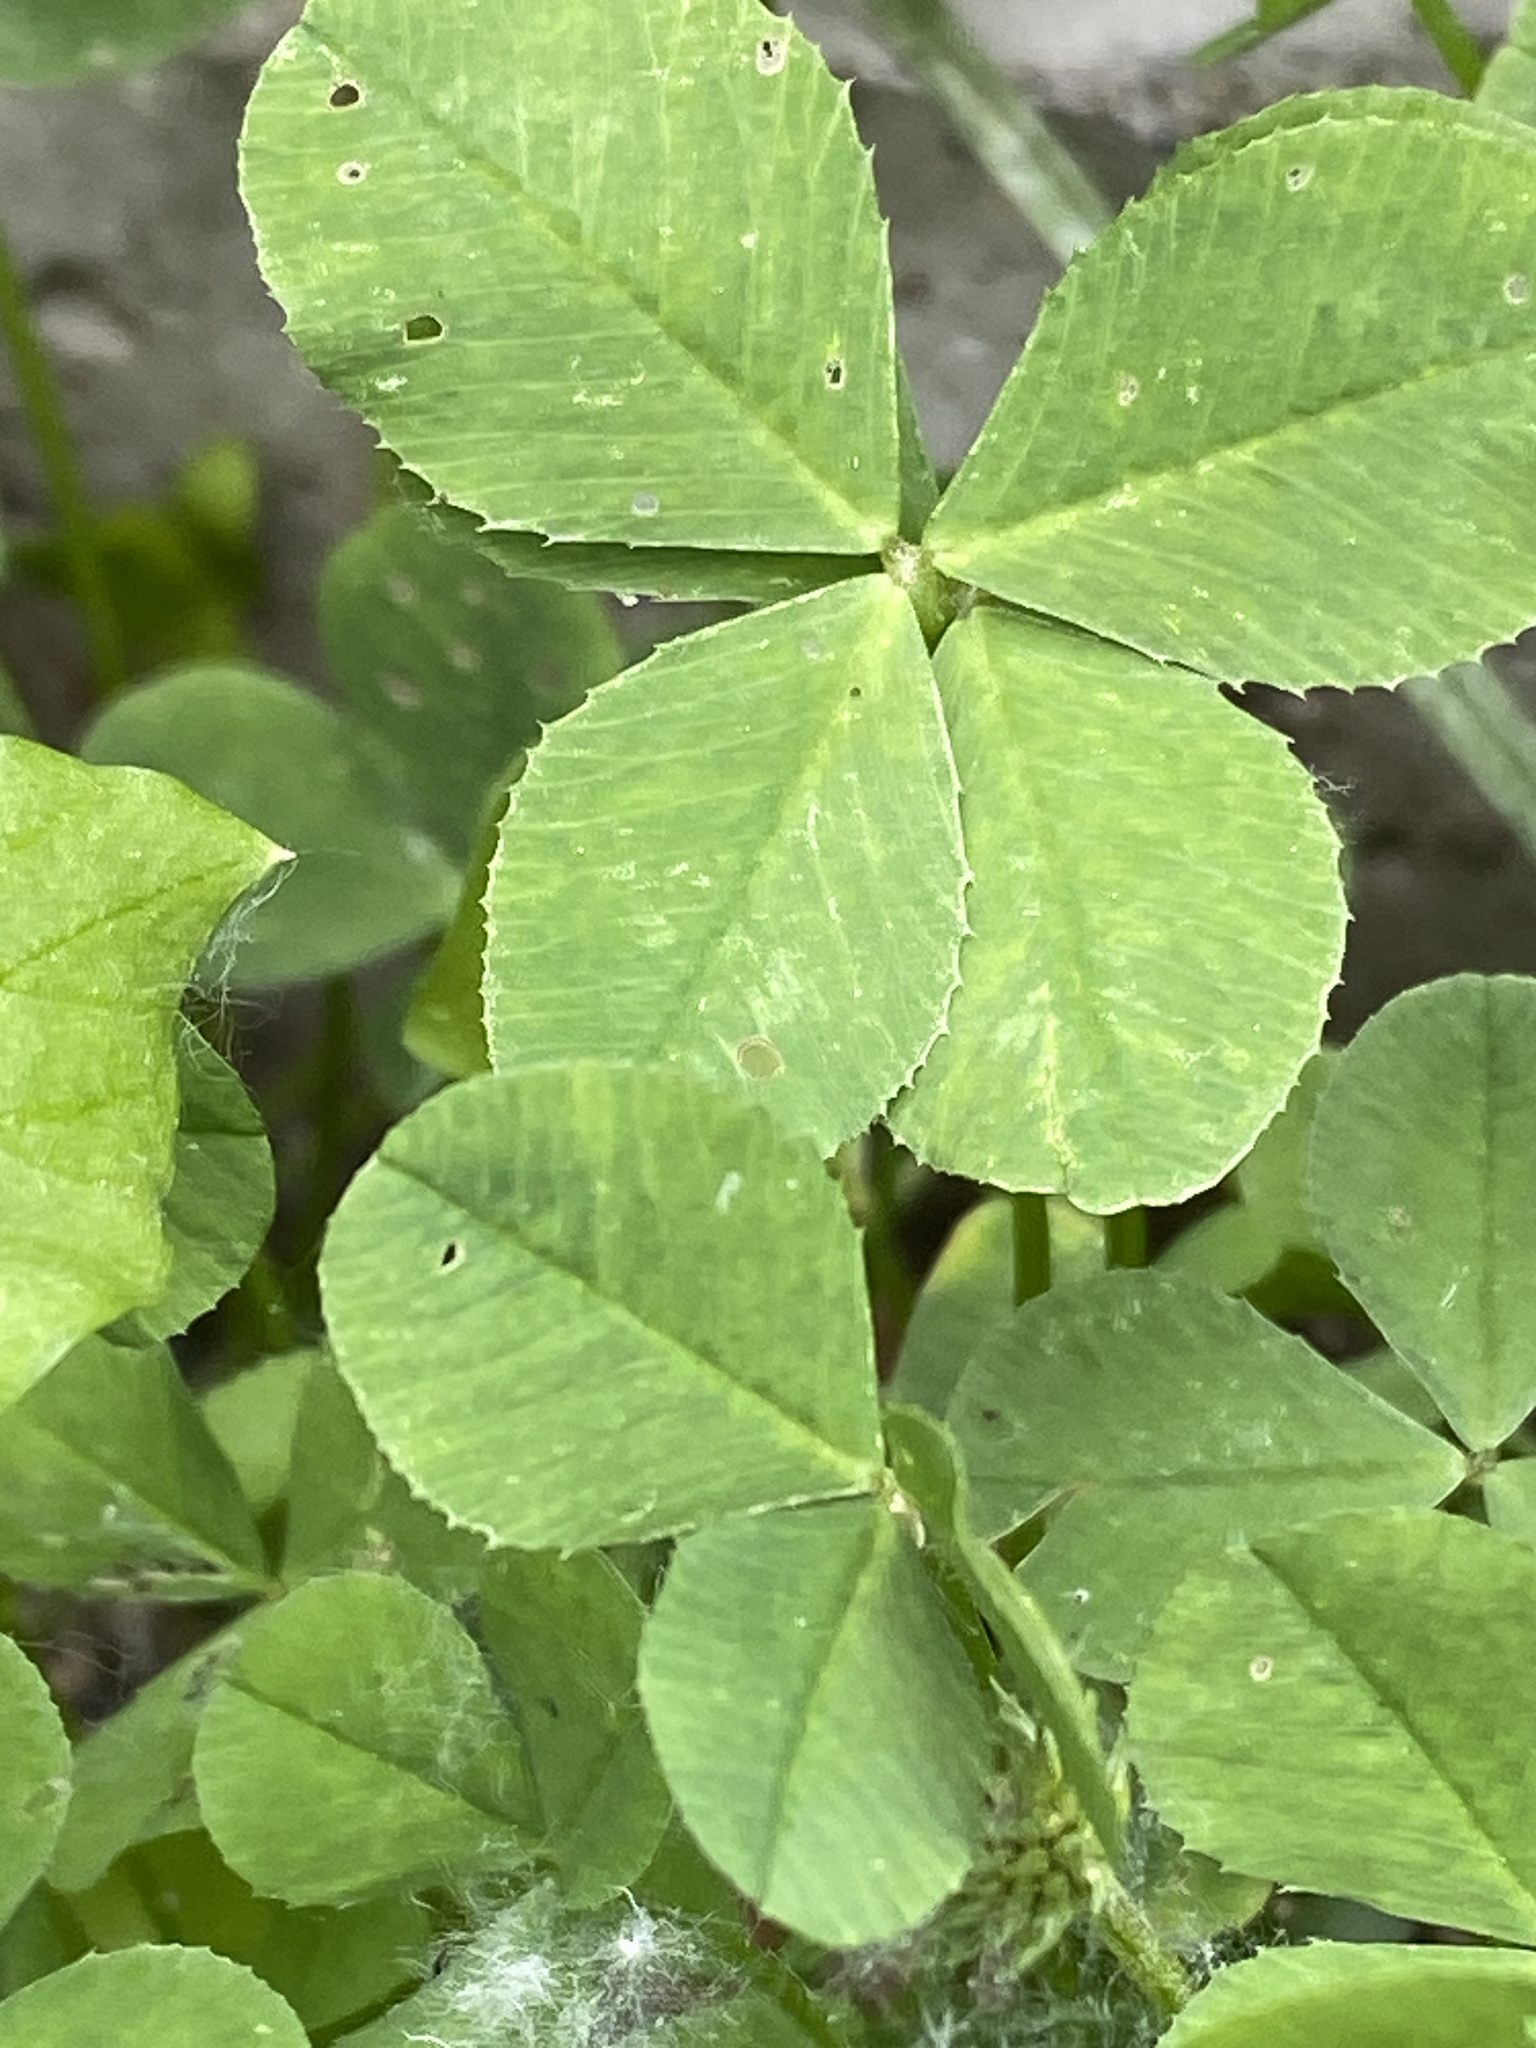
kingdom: Plantae
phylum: Tracheophyta
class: Magnoliopsida
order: Fabales
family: Fabaceae
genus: Trifolium
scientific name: Trifolium repens
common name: White clover
